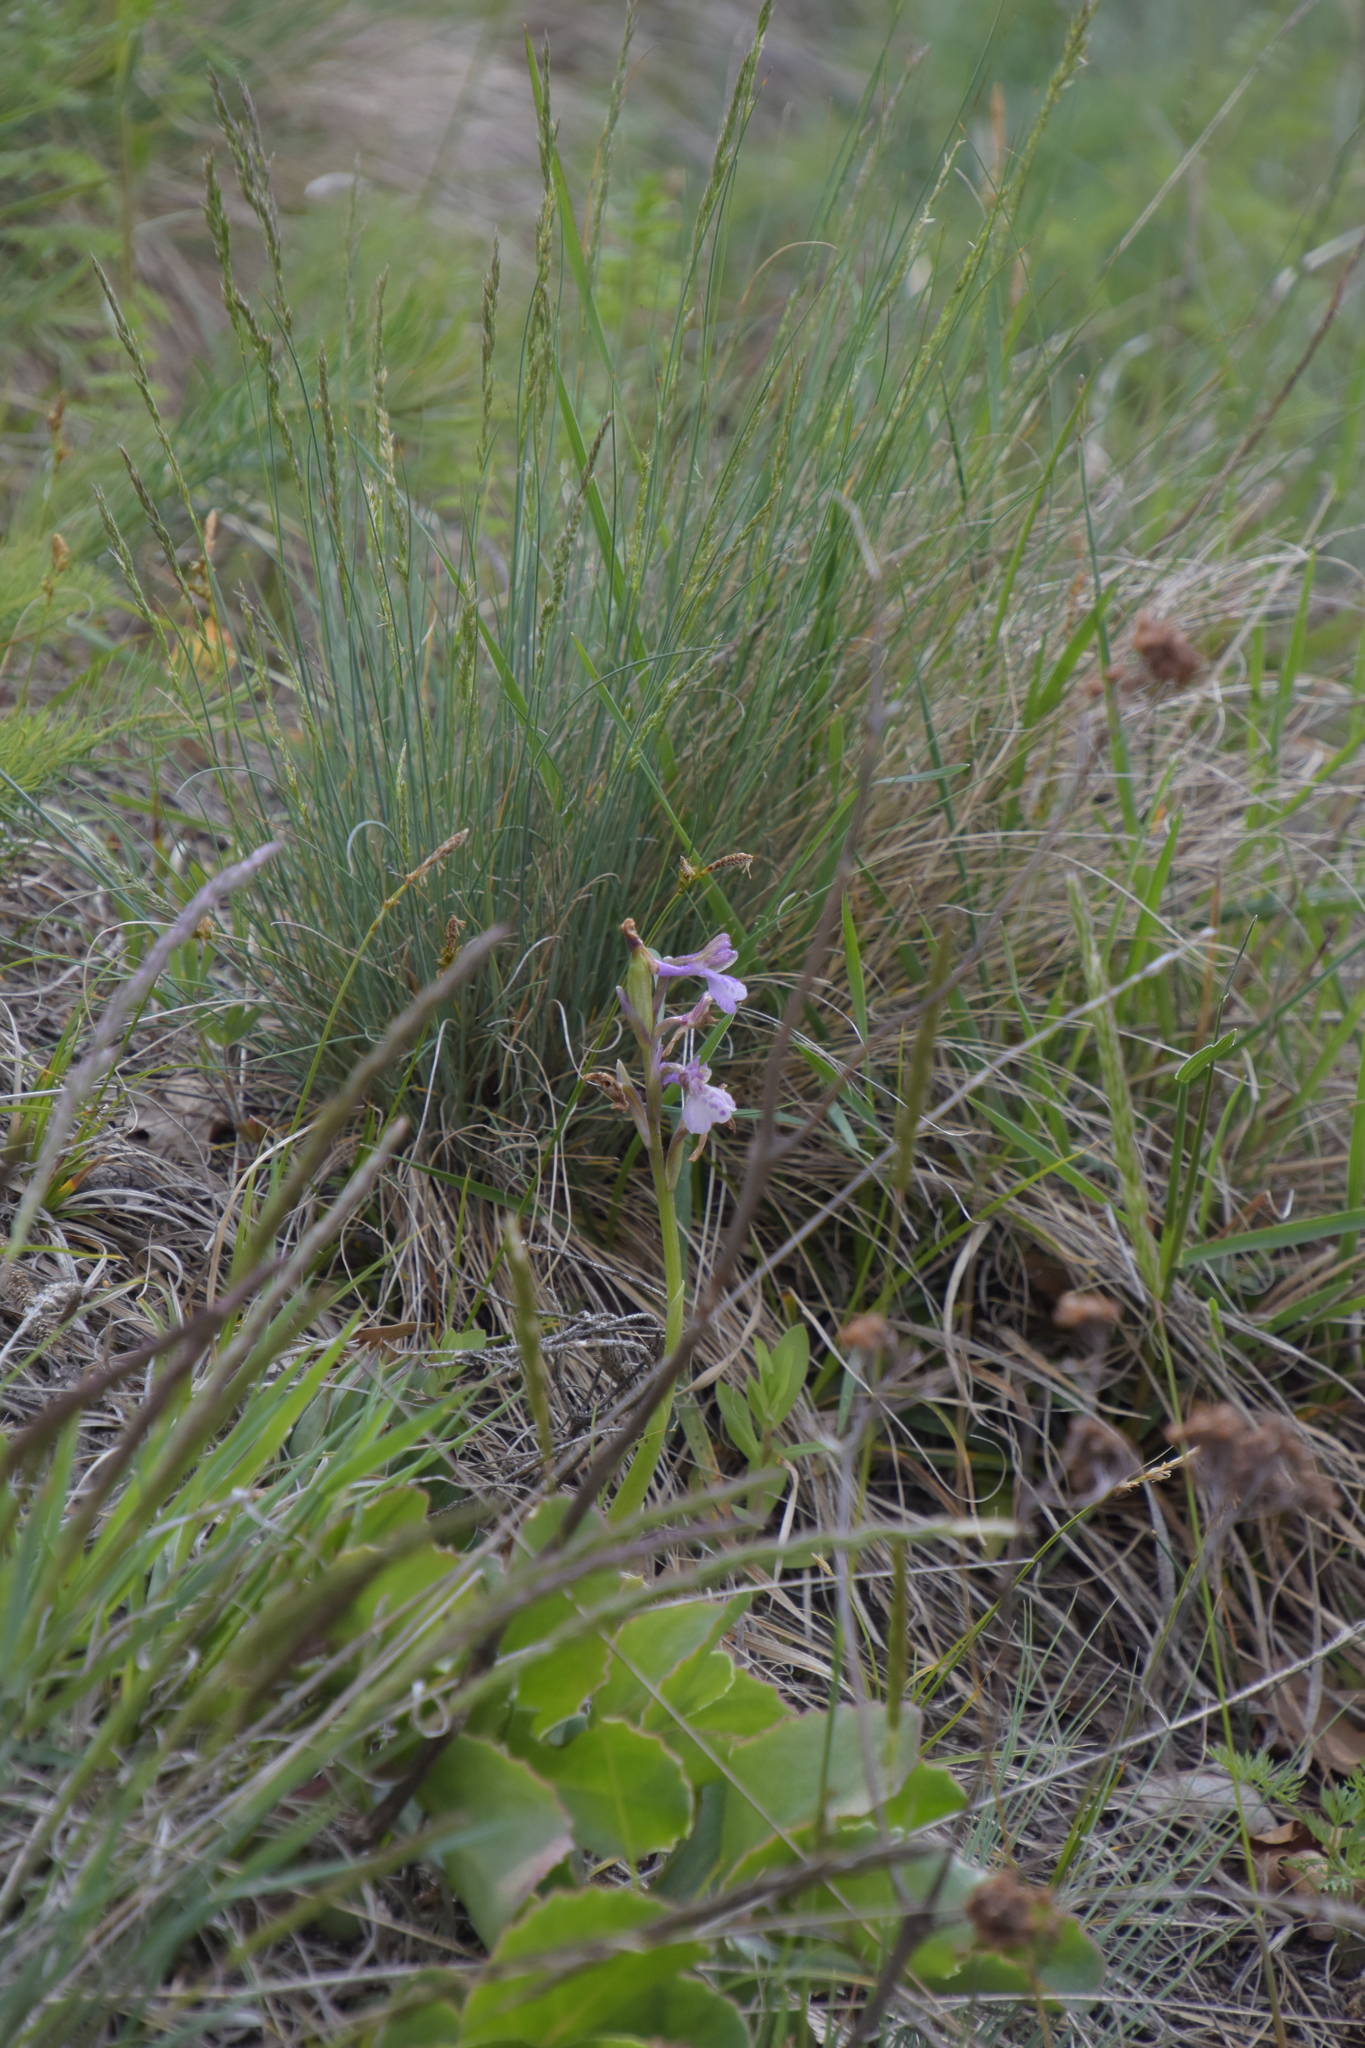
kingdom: Plantae
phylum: Tracheophyta
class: Liliopsida
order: Asparagales
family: Orchidaceae
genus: Anacamptis
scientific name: Anacamptis morio
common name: Green-winged orchid
